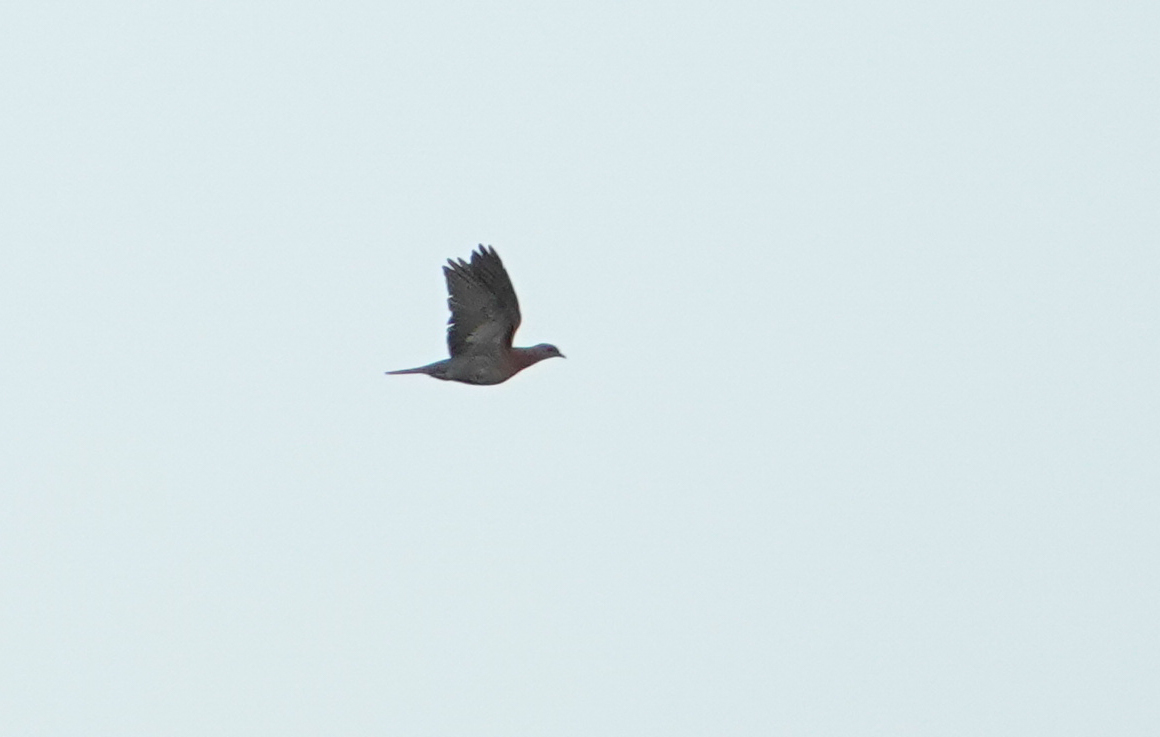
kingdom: Animalia
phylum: Chordata
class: Aves
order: Columbiformes
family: Columbidae
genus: Patagioenas
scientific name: Patagioenas cayennensis
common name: Pale-vented pigeon
